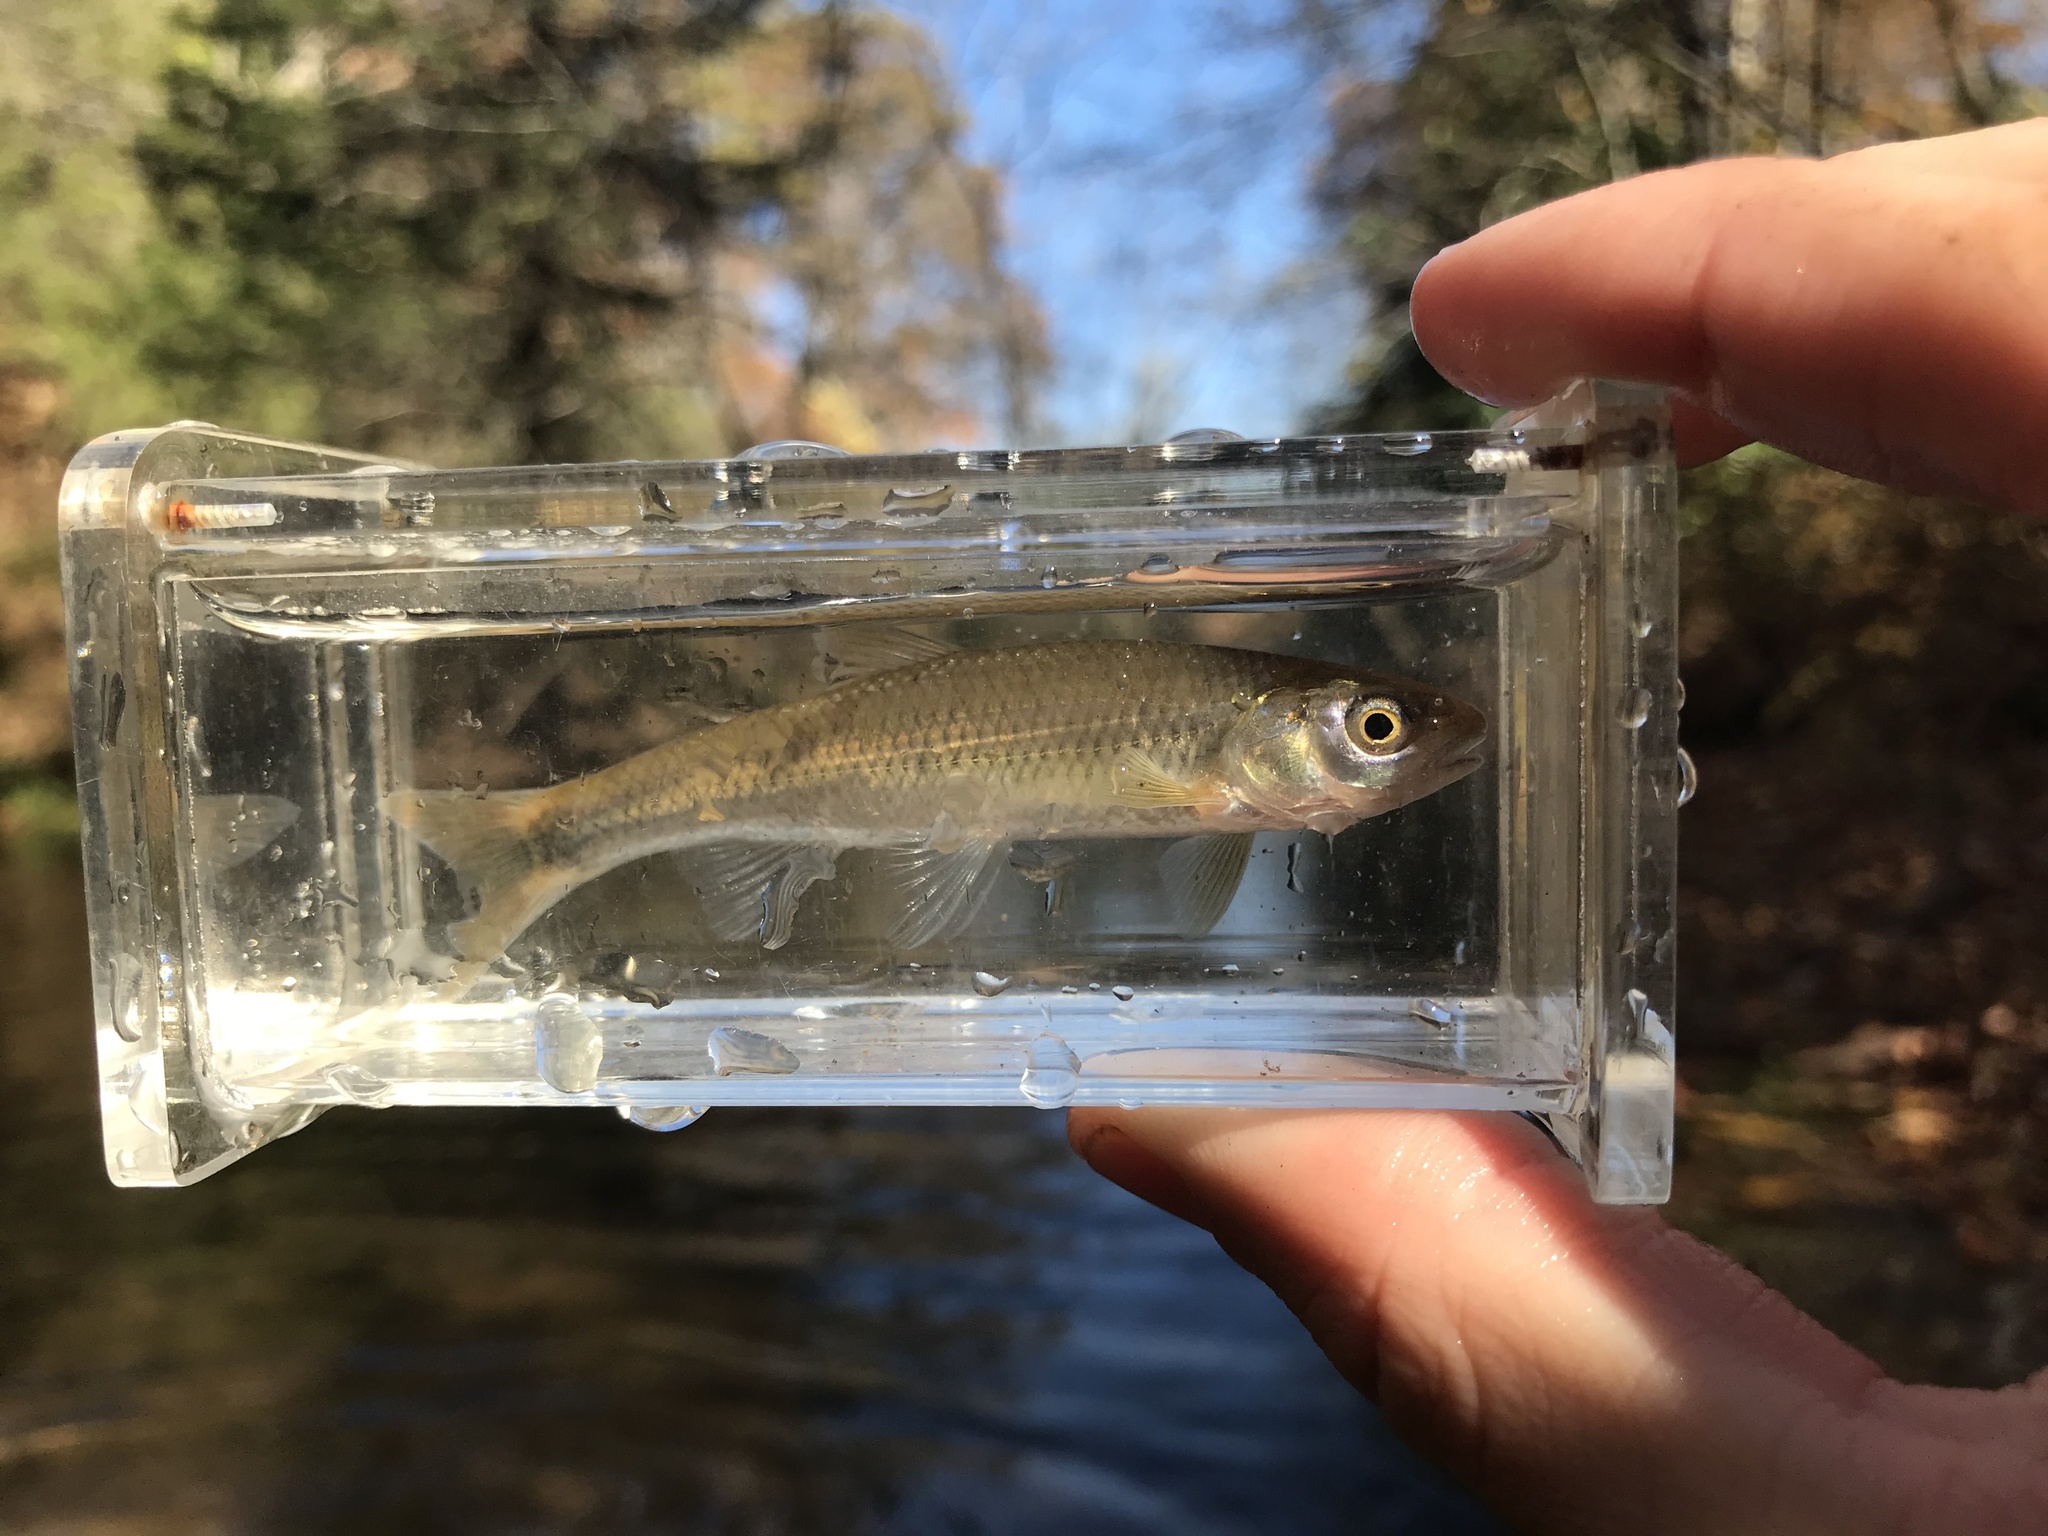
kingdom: Animalia
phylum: Chordata
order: Cypriniformes
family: Cyprinidae
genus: Cyprinella
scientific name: Cyprinella galactura
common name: Whitetail shiner
